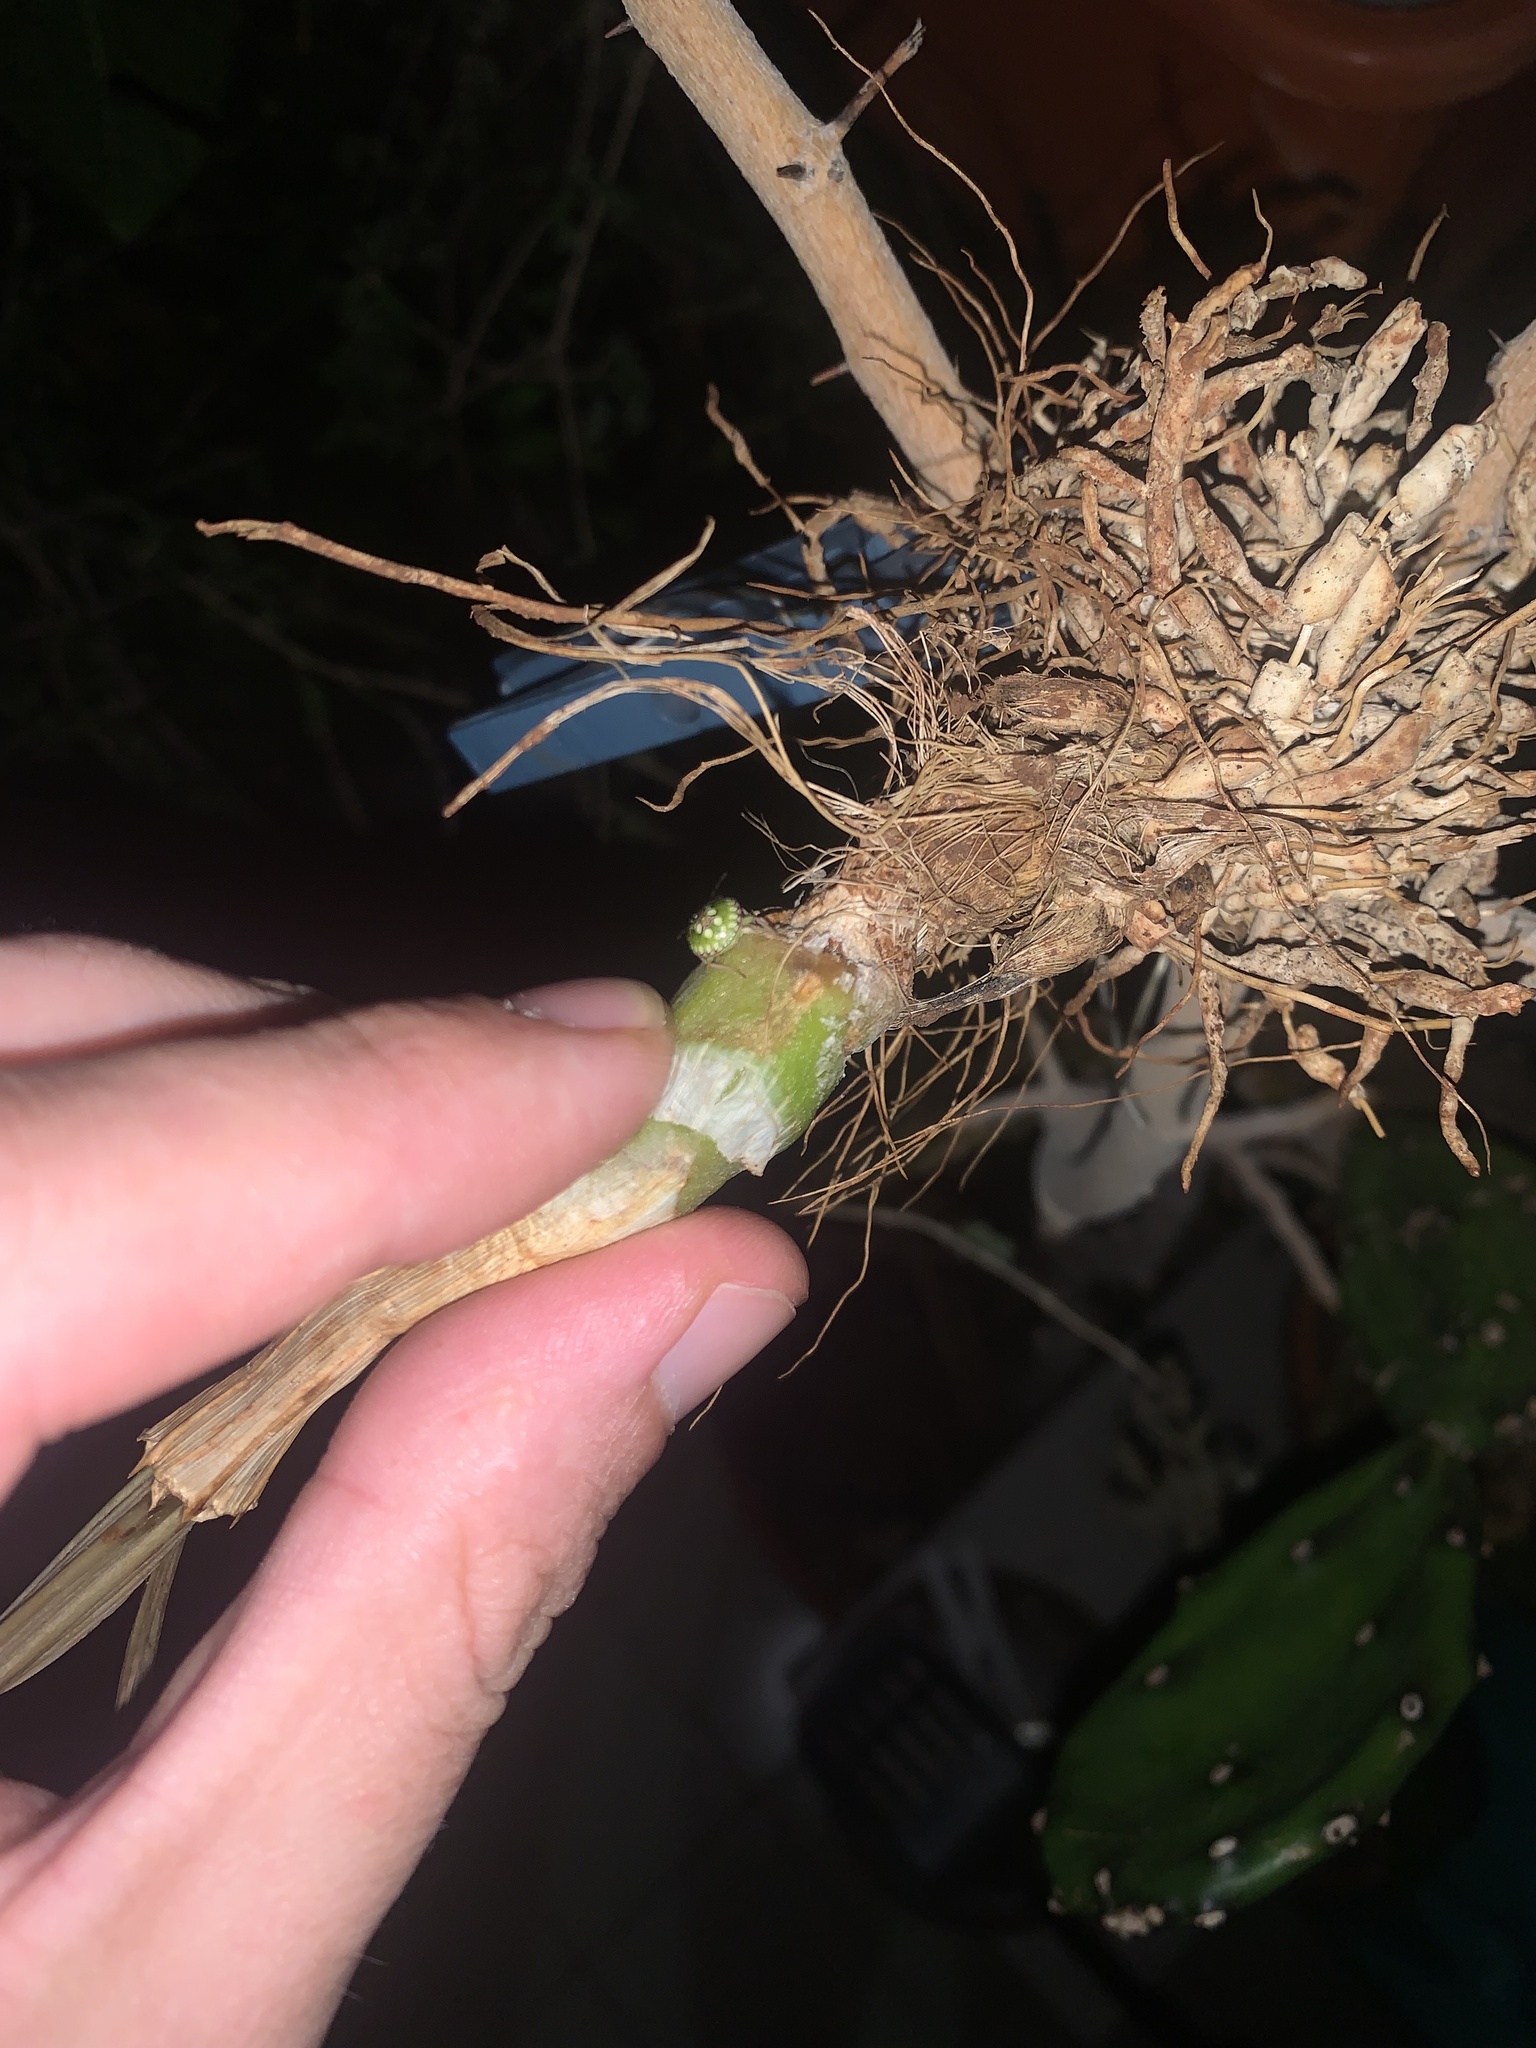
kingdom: Animalia
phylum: Arthropoda
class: Insecta
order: Hemiptera
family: Pentatomidae
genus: Nezara
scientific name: Nezara viridula
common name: Southern green stink bug
